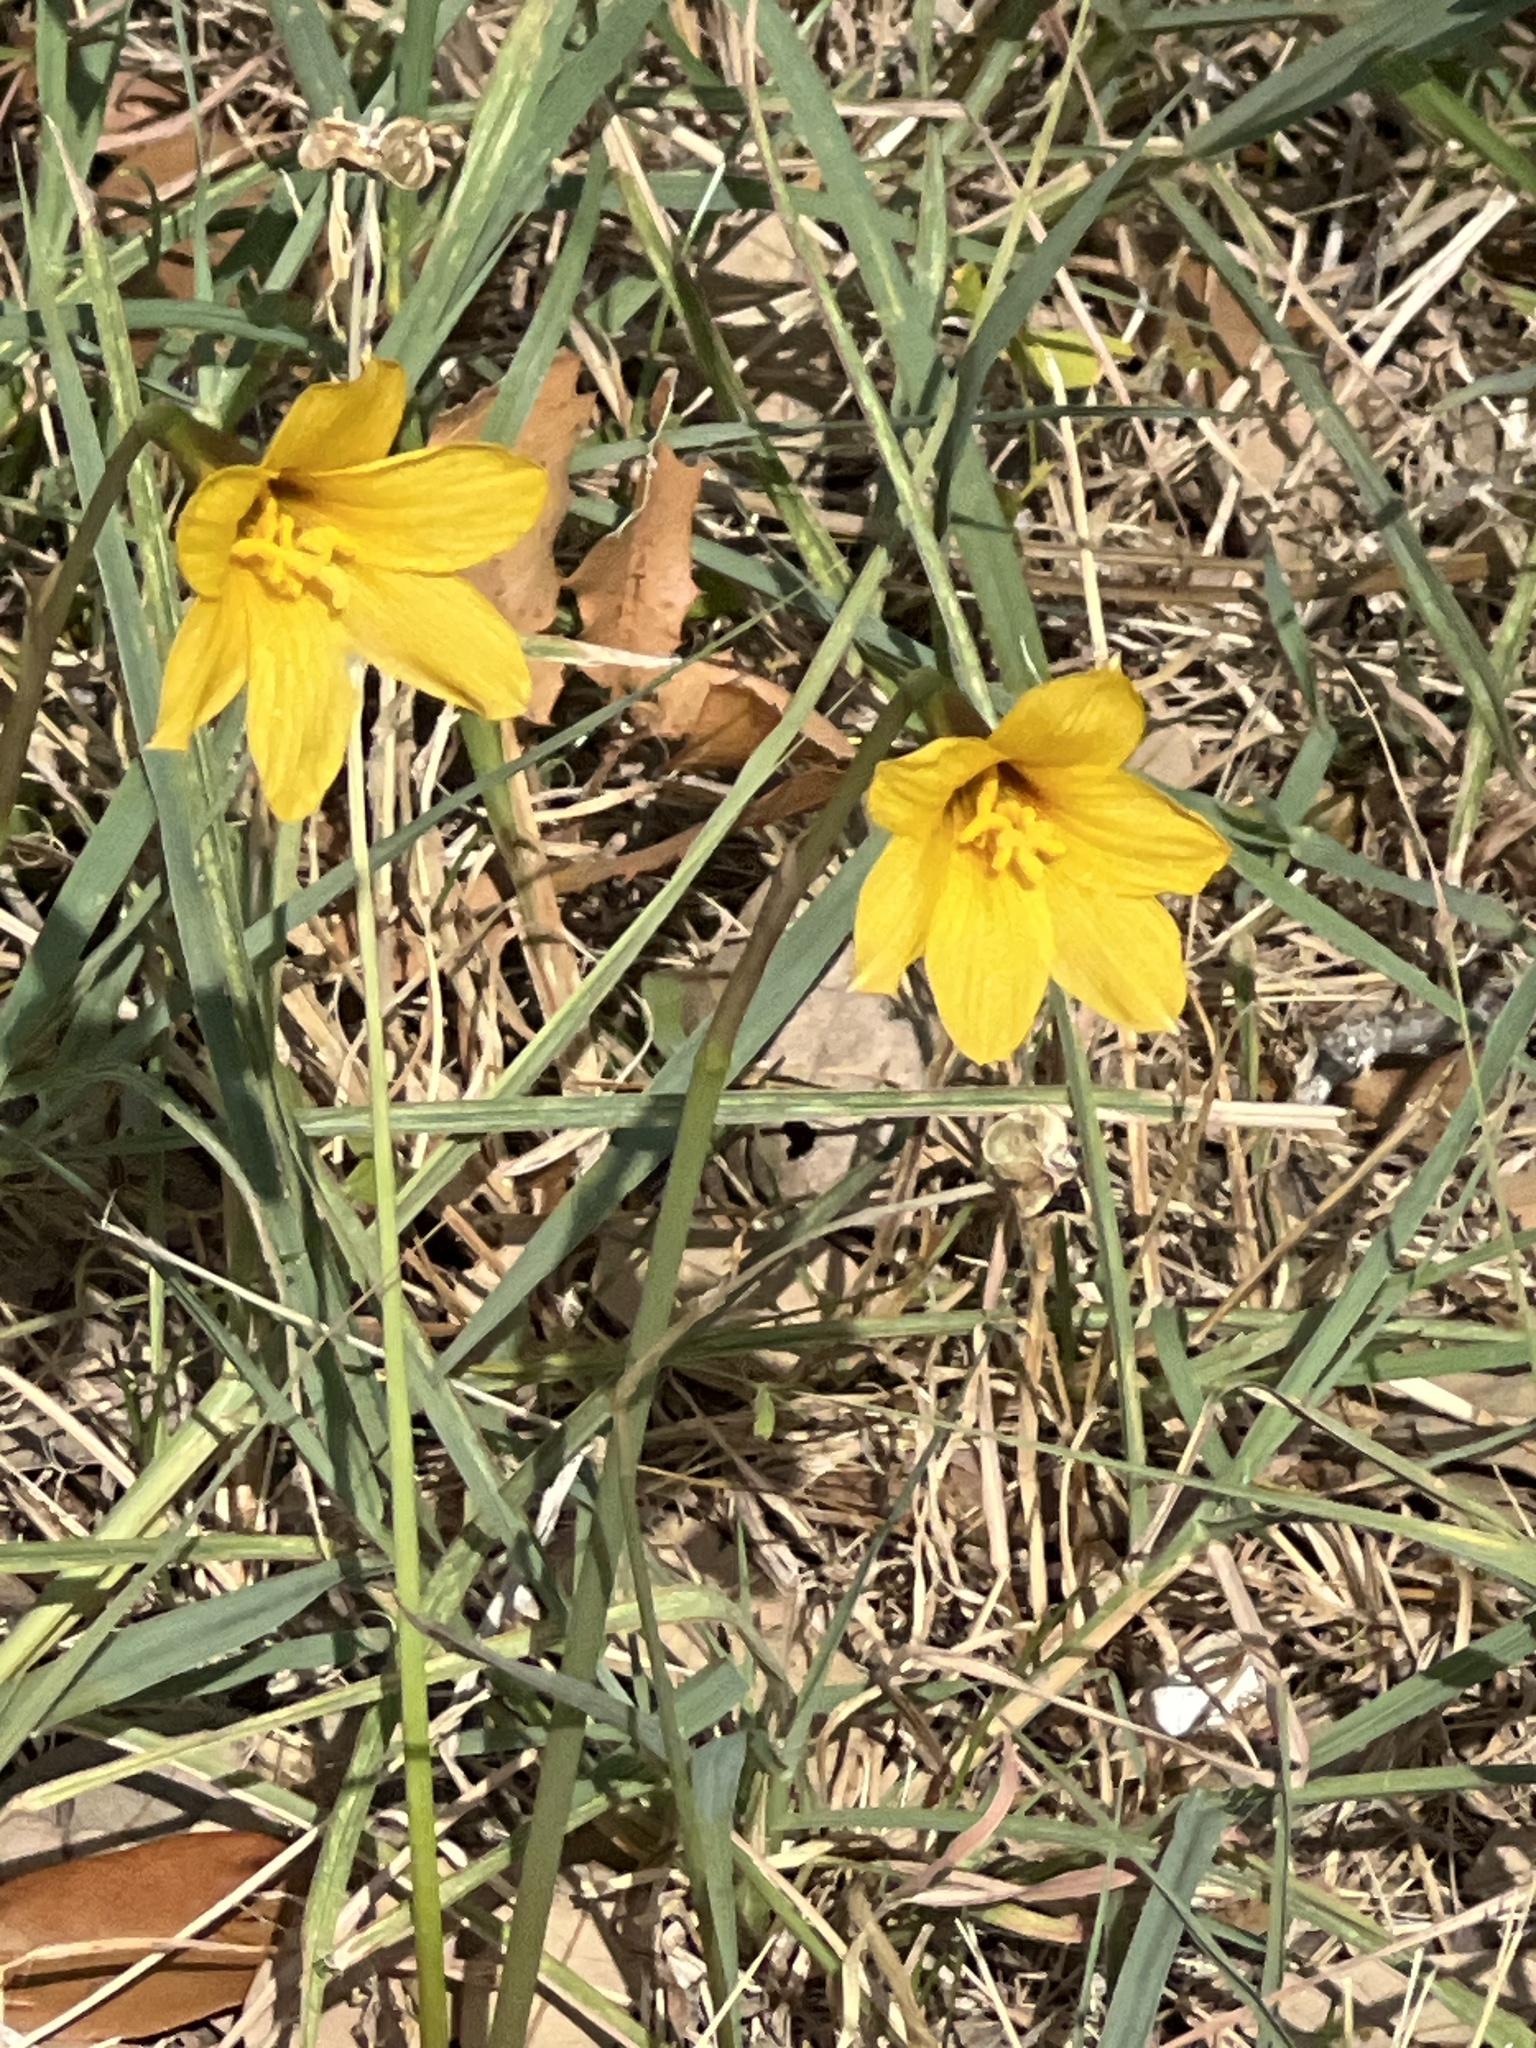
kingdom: Plantae
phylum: Tracheophyta
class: Liliopsida
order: Asparagales
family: Amaryllidaceae
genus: Zephyranthes
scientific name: Zephyranthes tubispatha
